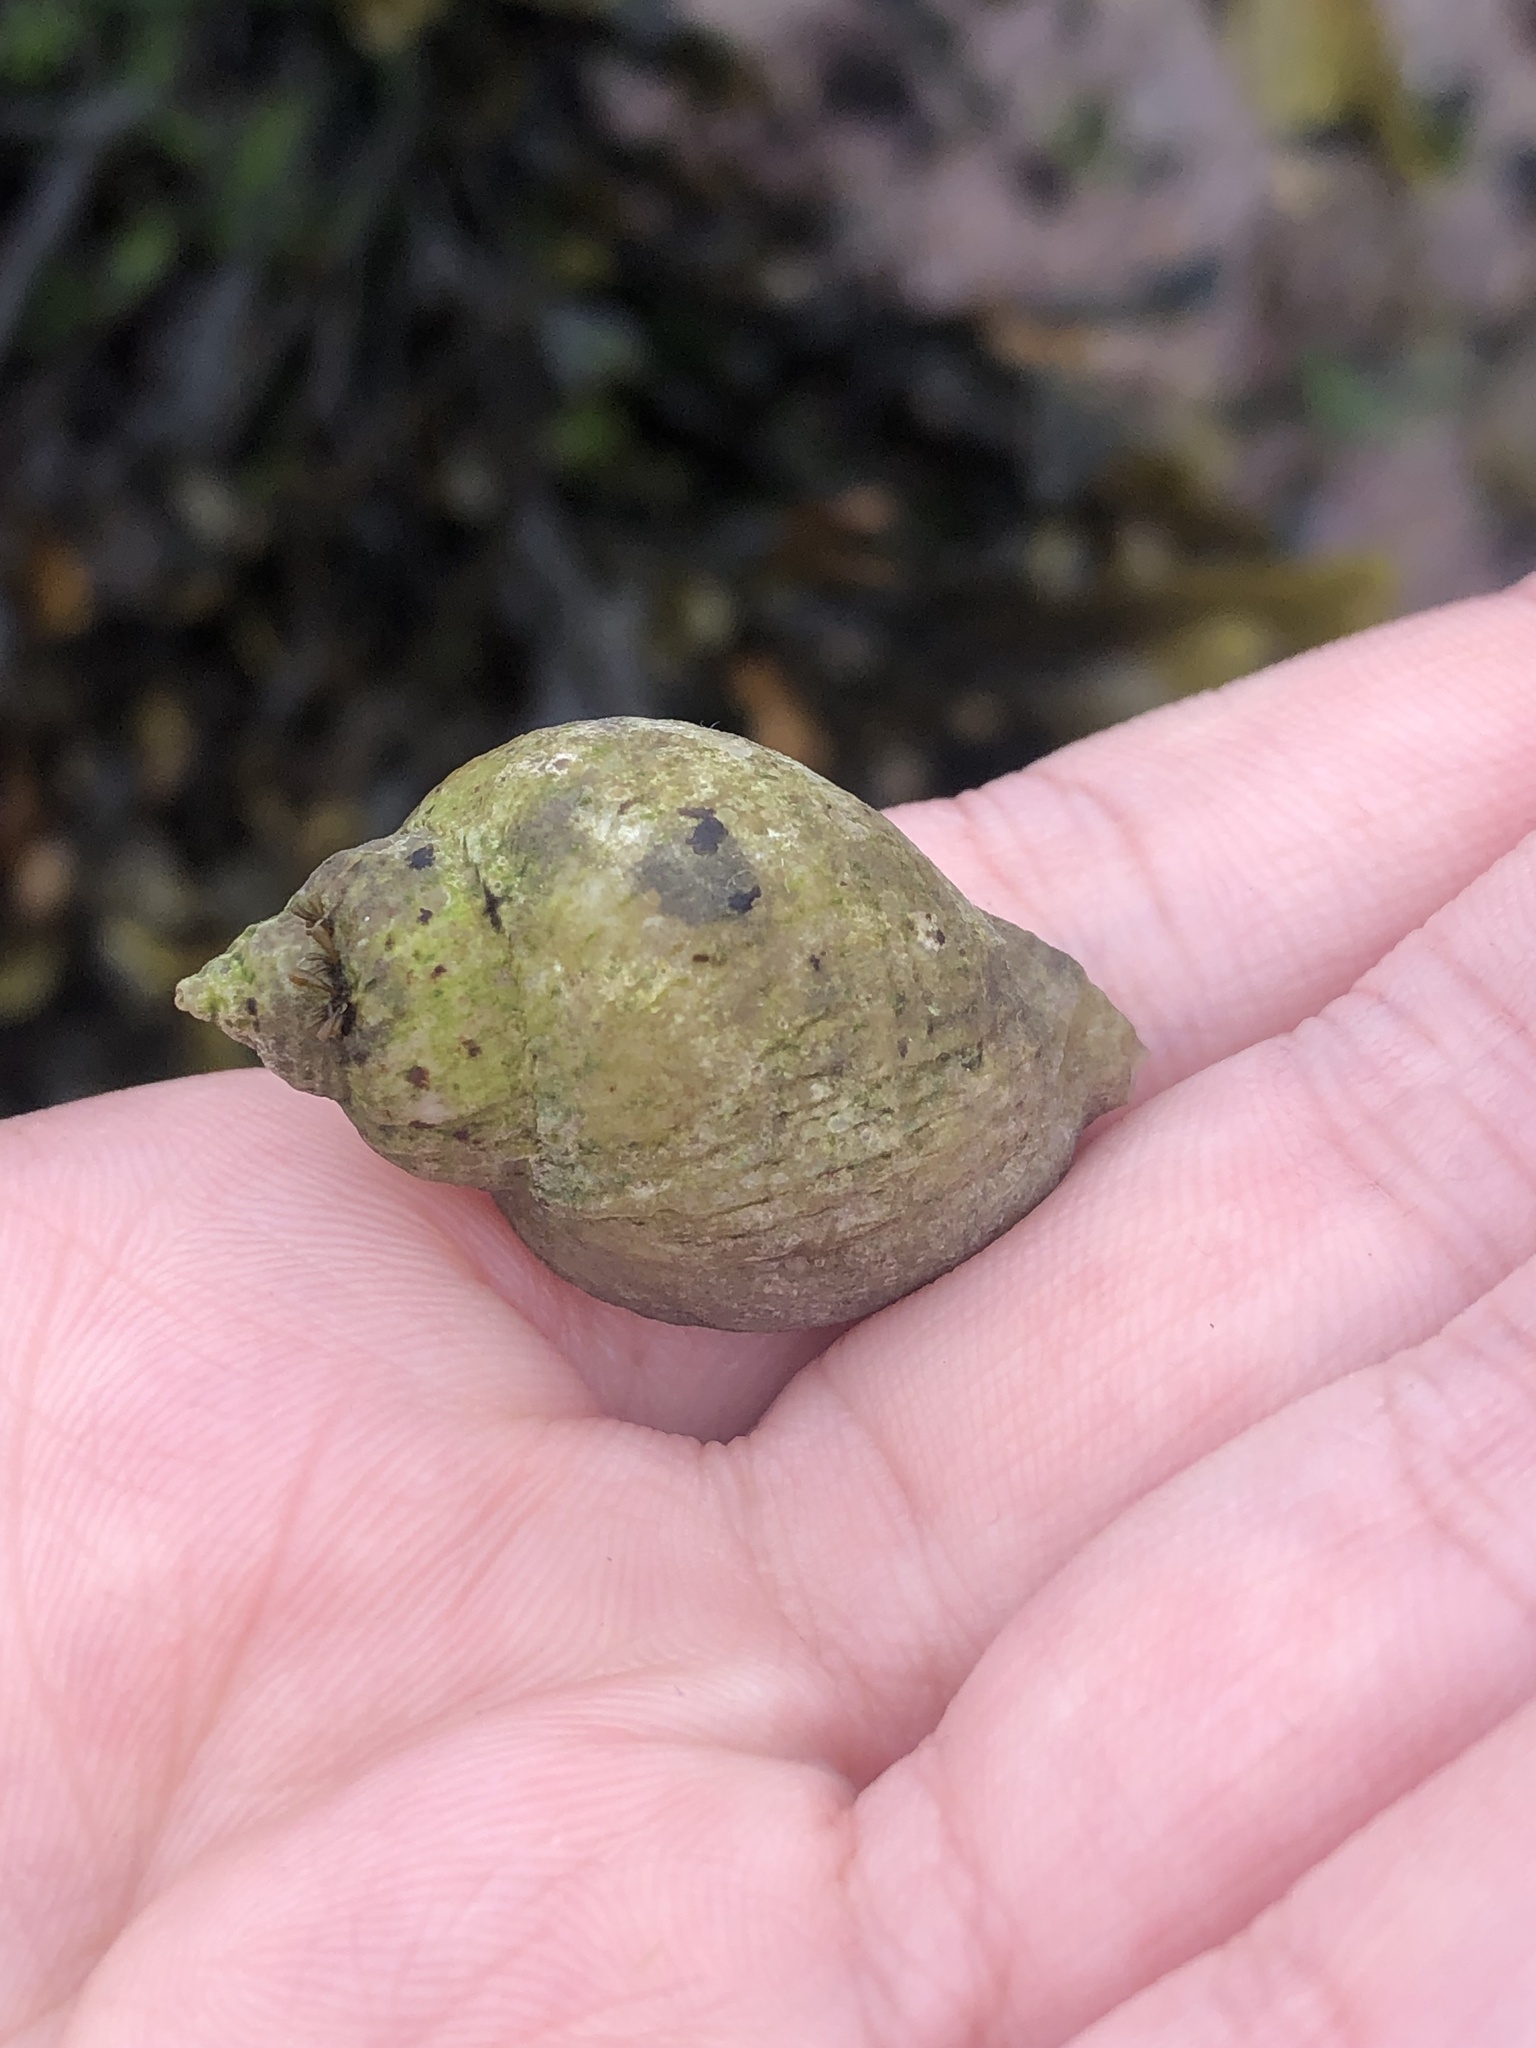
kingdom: Animalia
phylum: Mollusca
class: Gastropoda
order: Neogastropoda
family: Muricidae
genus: Nucella
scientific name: Nucella lapillus
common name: Dog whelk
